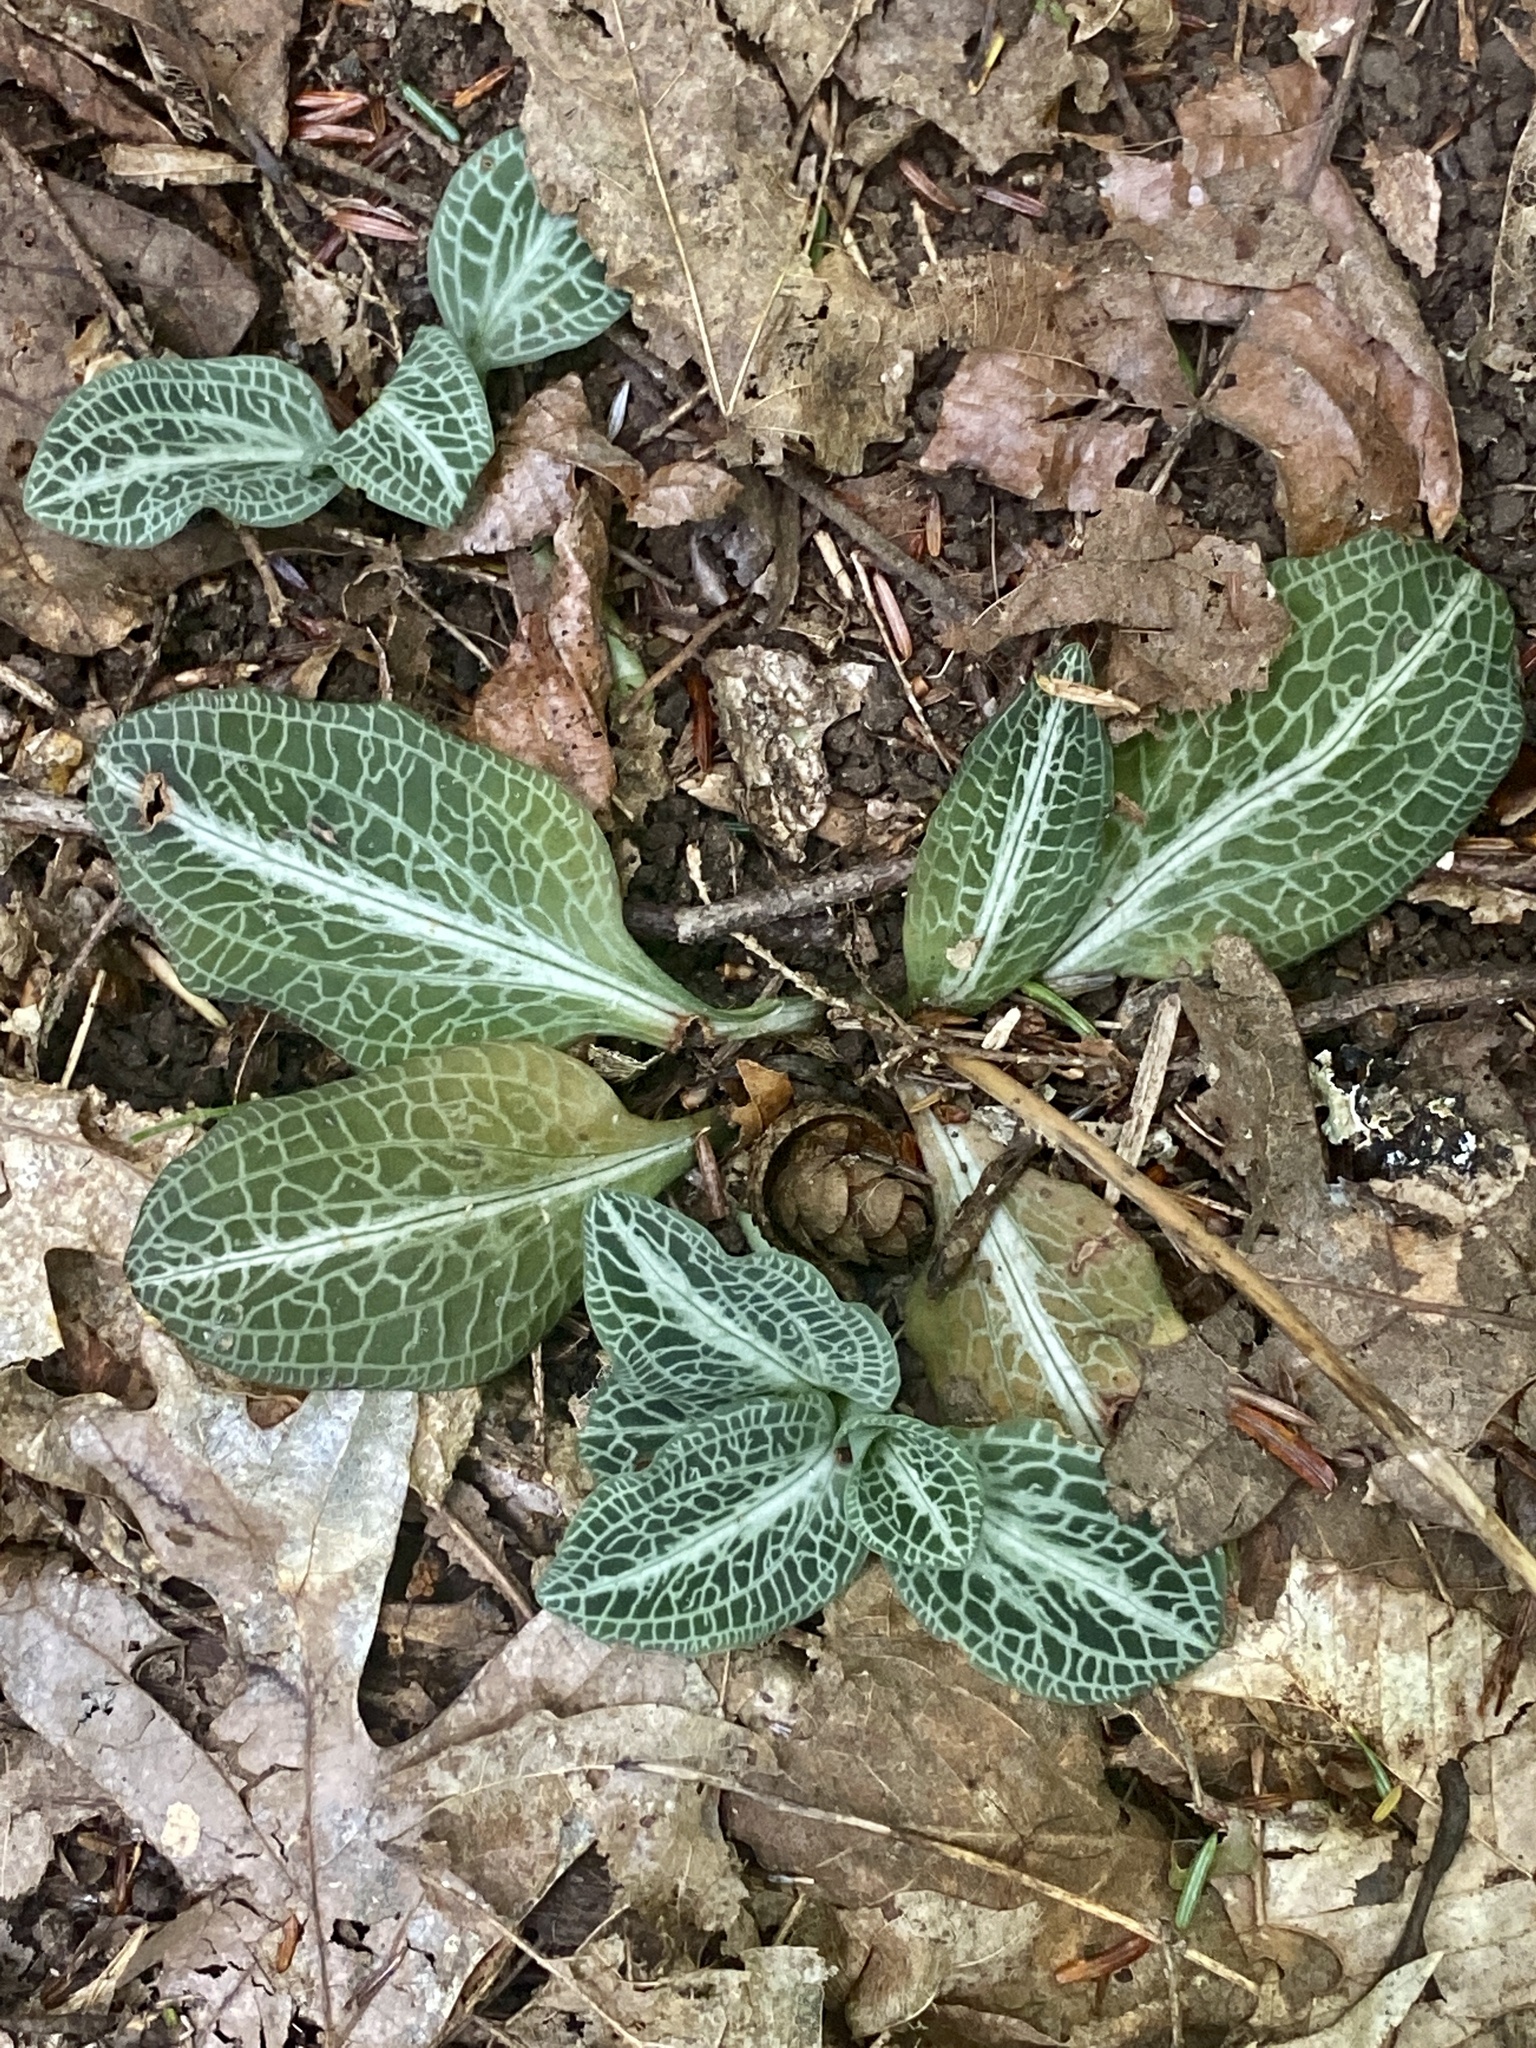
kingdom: Plantae
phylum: Tracheophyta
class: Liliopsida
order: Asparagales
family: Orchidaceae
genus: Goodyera
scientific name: Goodyera pubescens
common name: Downy rattlesnake-plantain
